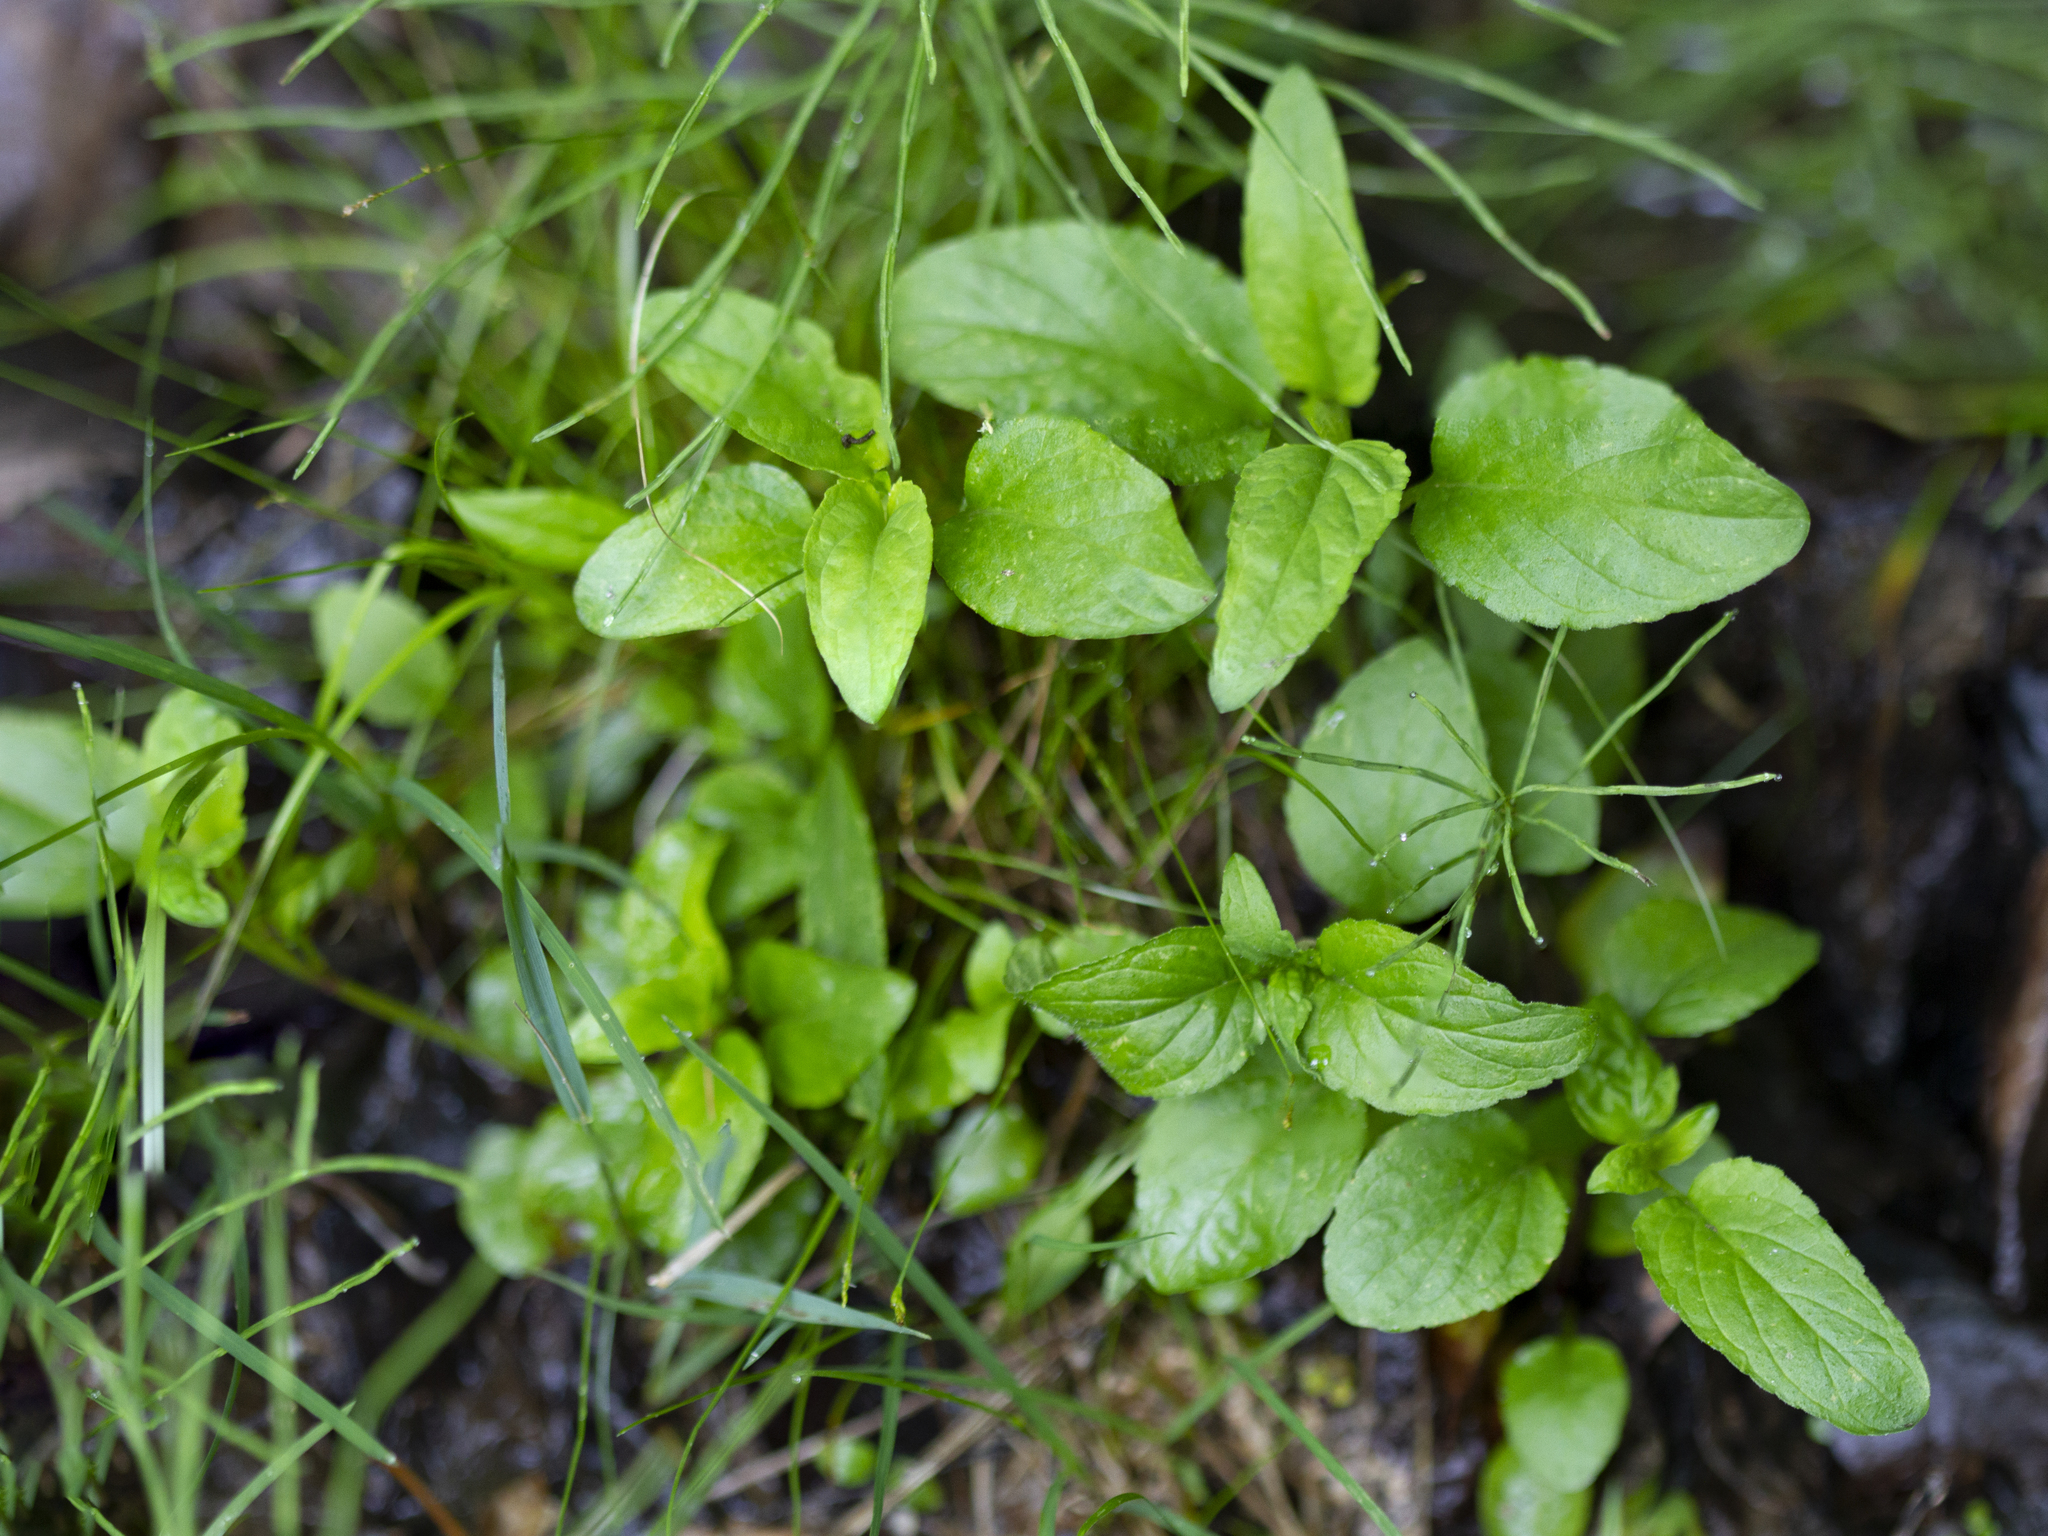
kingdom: Plantae
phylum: Tracheophyta
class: Magnoliopsida
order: Lamiales
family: Lamiaceae
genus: Prunella
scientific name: Prunella vulgaris
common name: Heal-all
